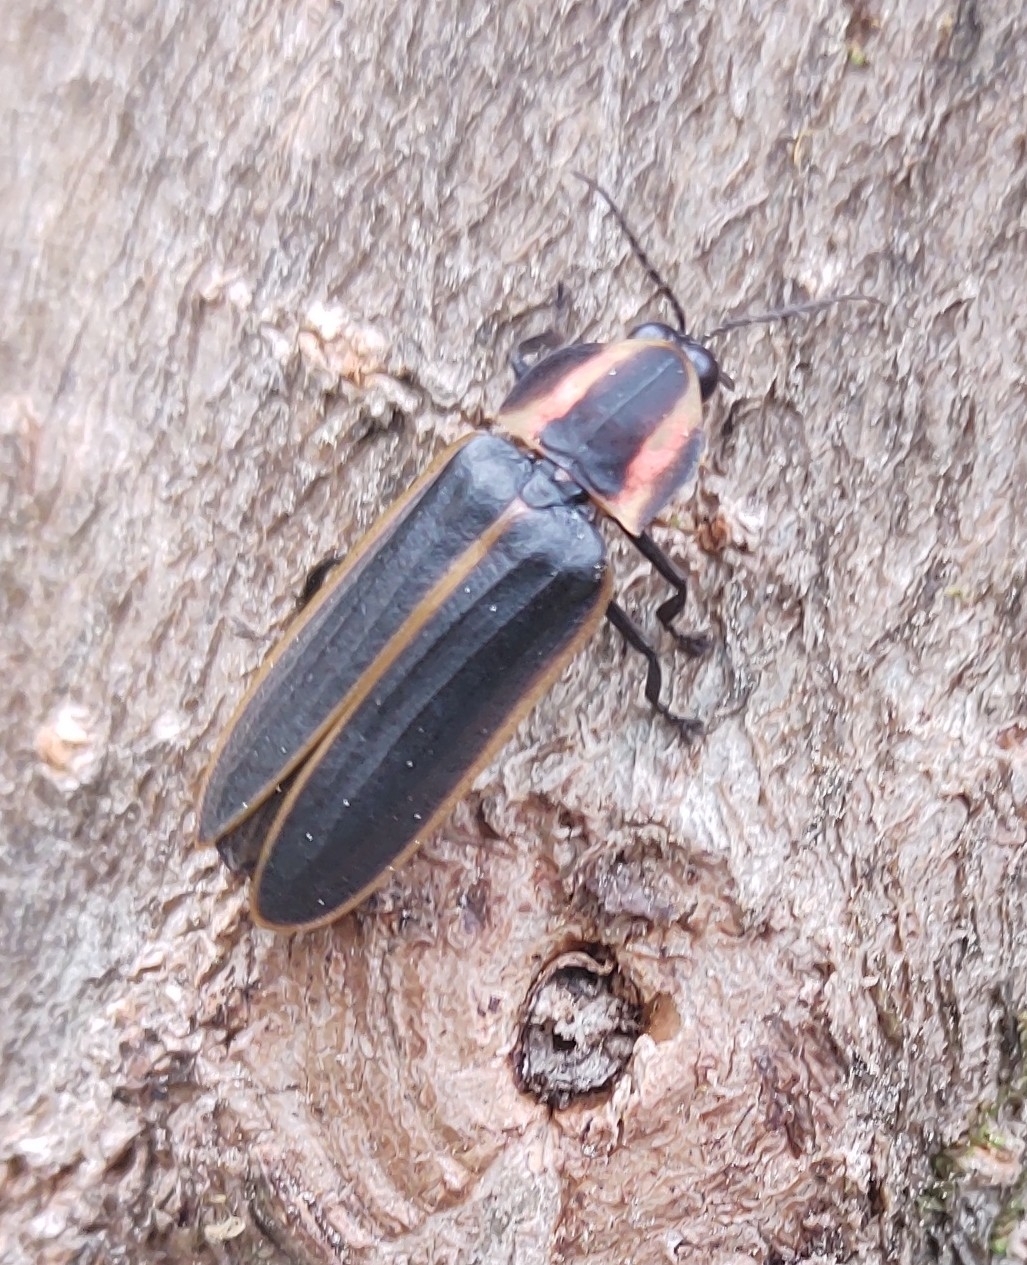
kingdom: Animalia
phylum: Arthropoda
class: Insecta
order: Coleoptera
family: Lampyridae
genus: Pyractomena
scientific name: Pyractomena borealis
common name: Northern firefly
